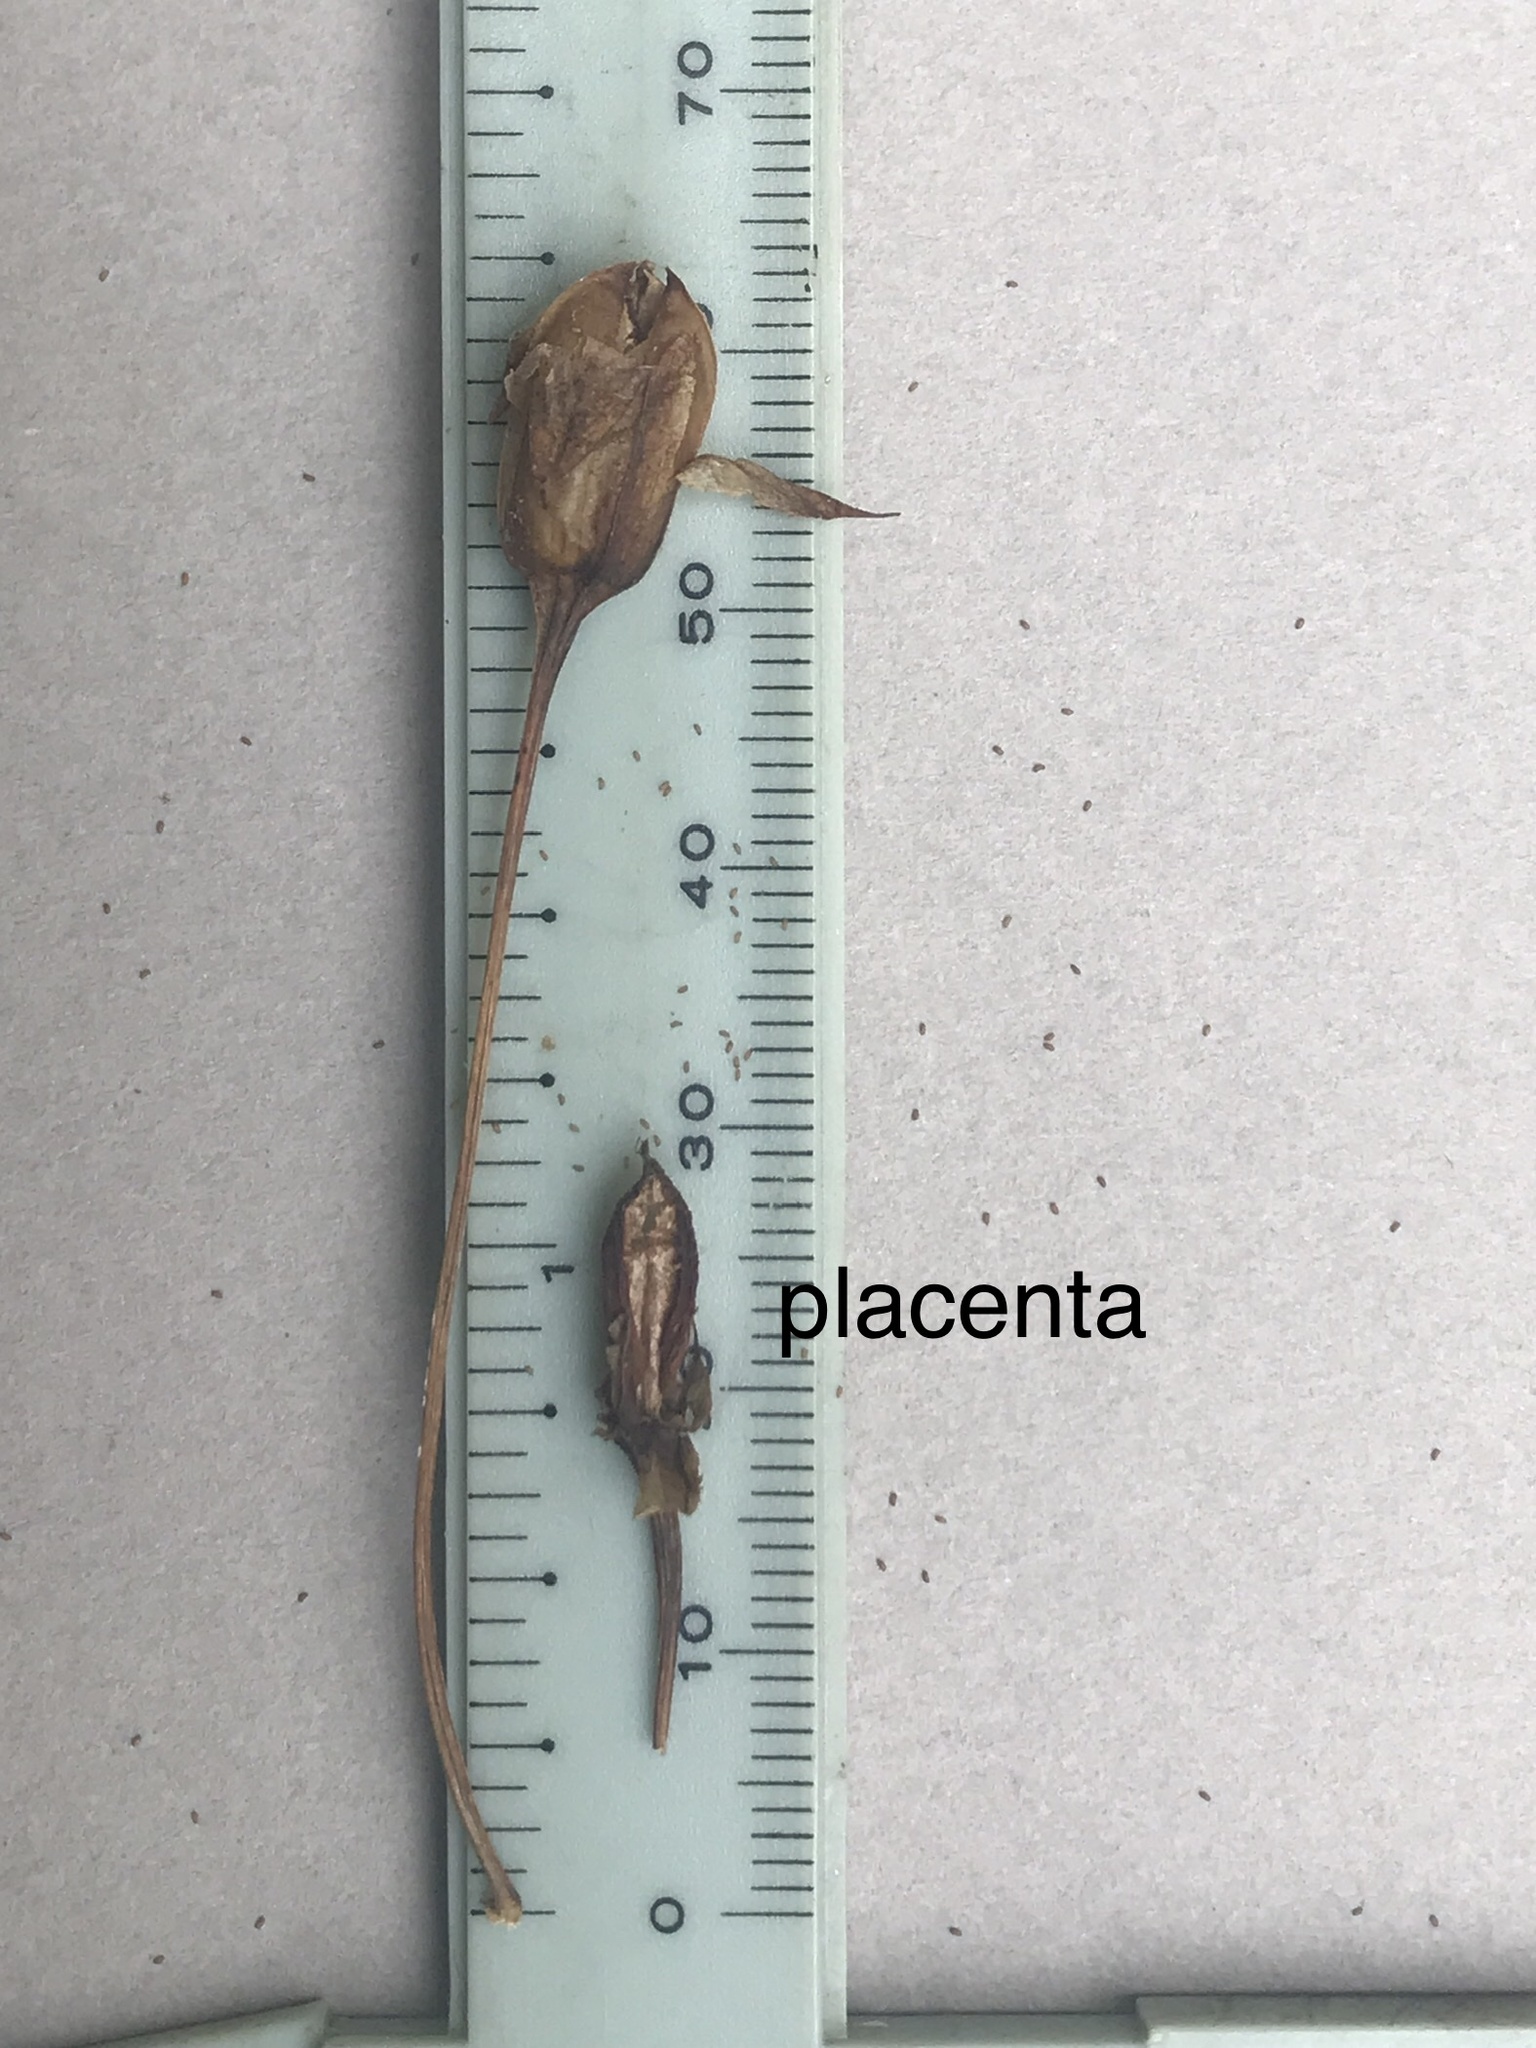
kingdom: Plantae
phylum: Tracheophyta
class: Magnoliopsida
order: Lamiales
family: Phrymaceae
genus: Mimulus
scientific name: Mimulus ringens
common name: Allegheny monkeyflower
